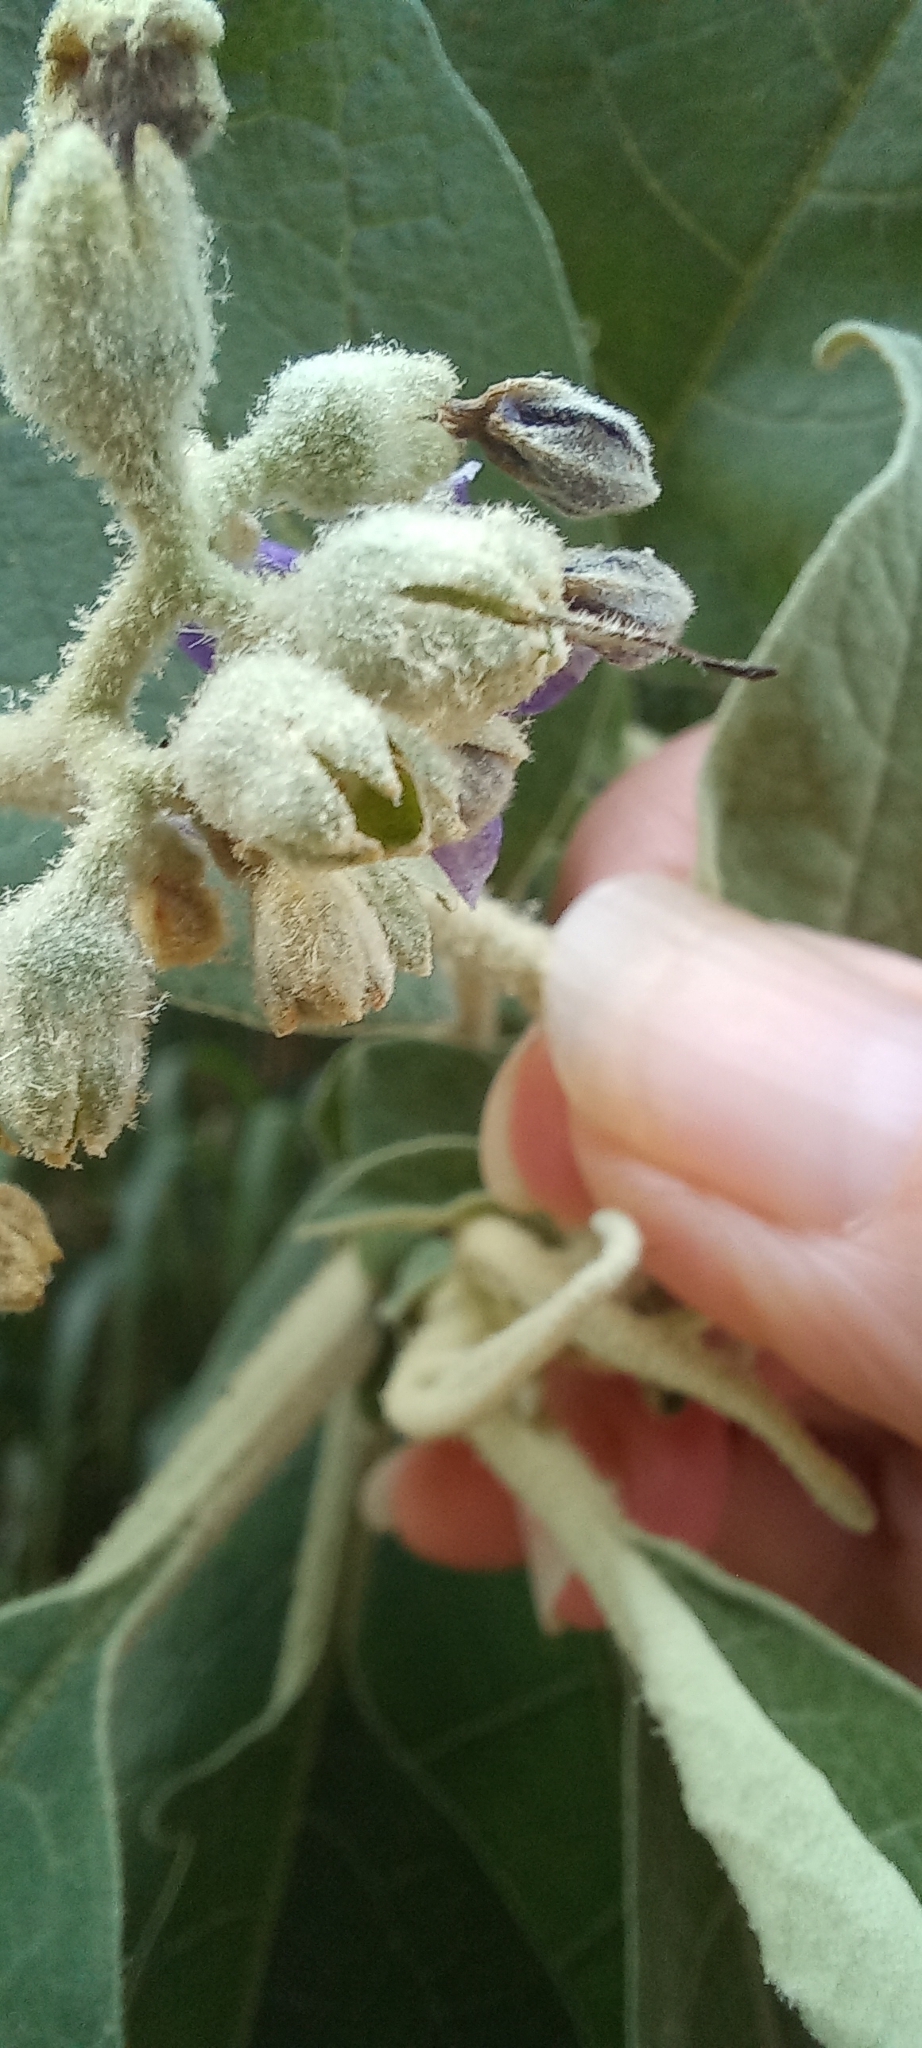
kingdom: Plantae
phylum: Tracheophyta
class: Magnoliopsida
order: Solanales
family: Solanaceae
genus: Solanum
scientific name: Solanum mauritianum
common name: Earleaf nightshade
